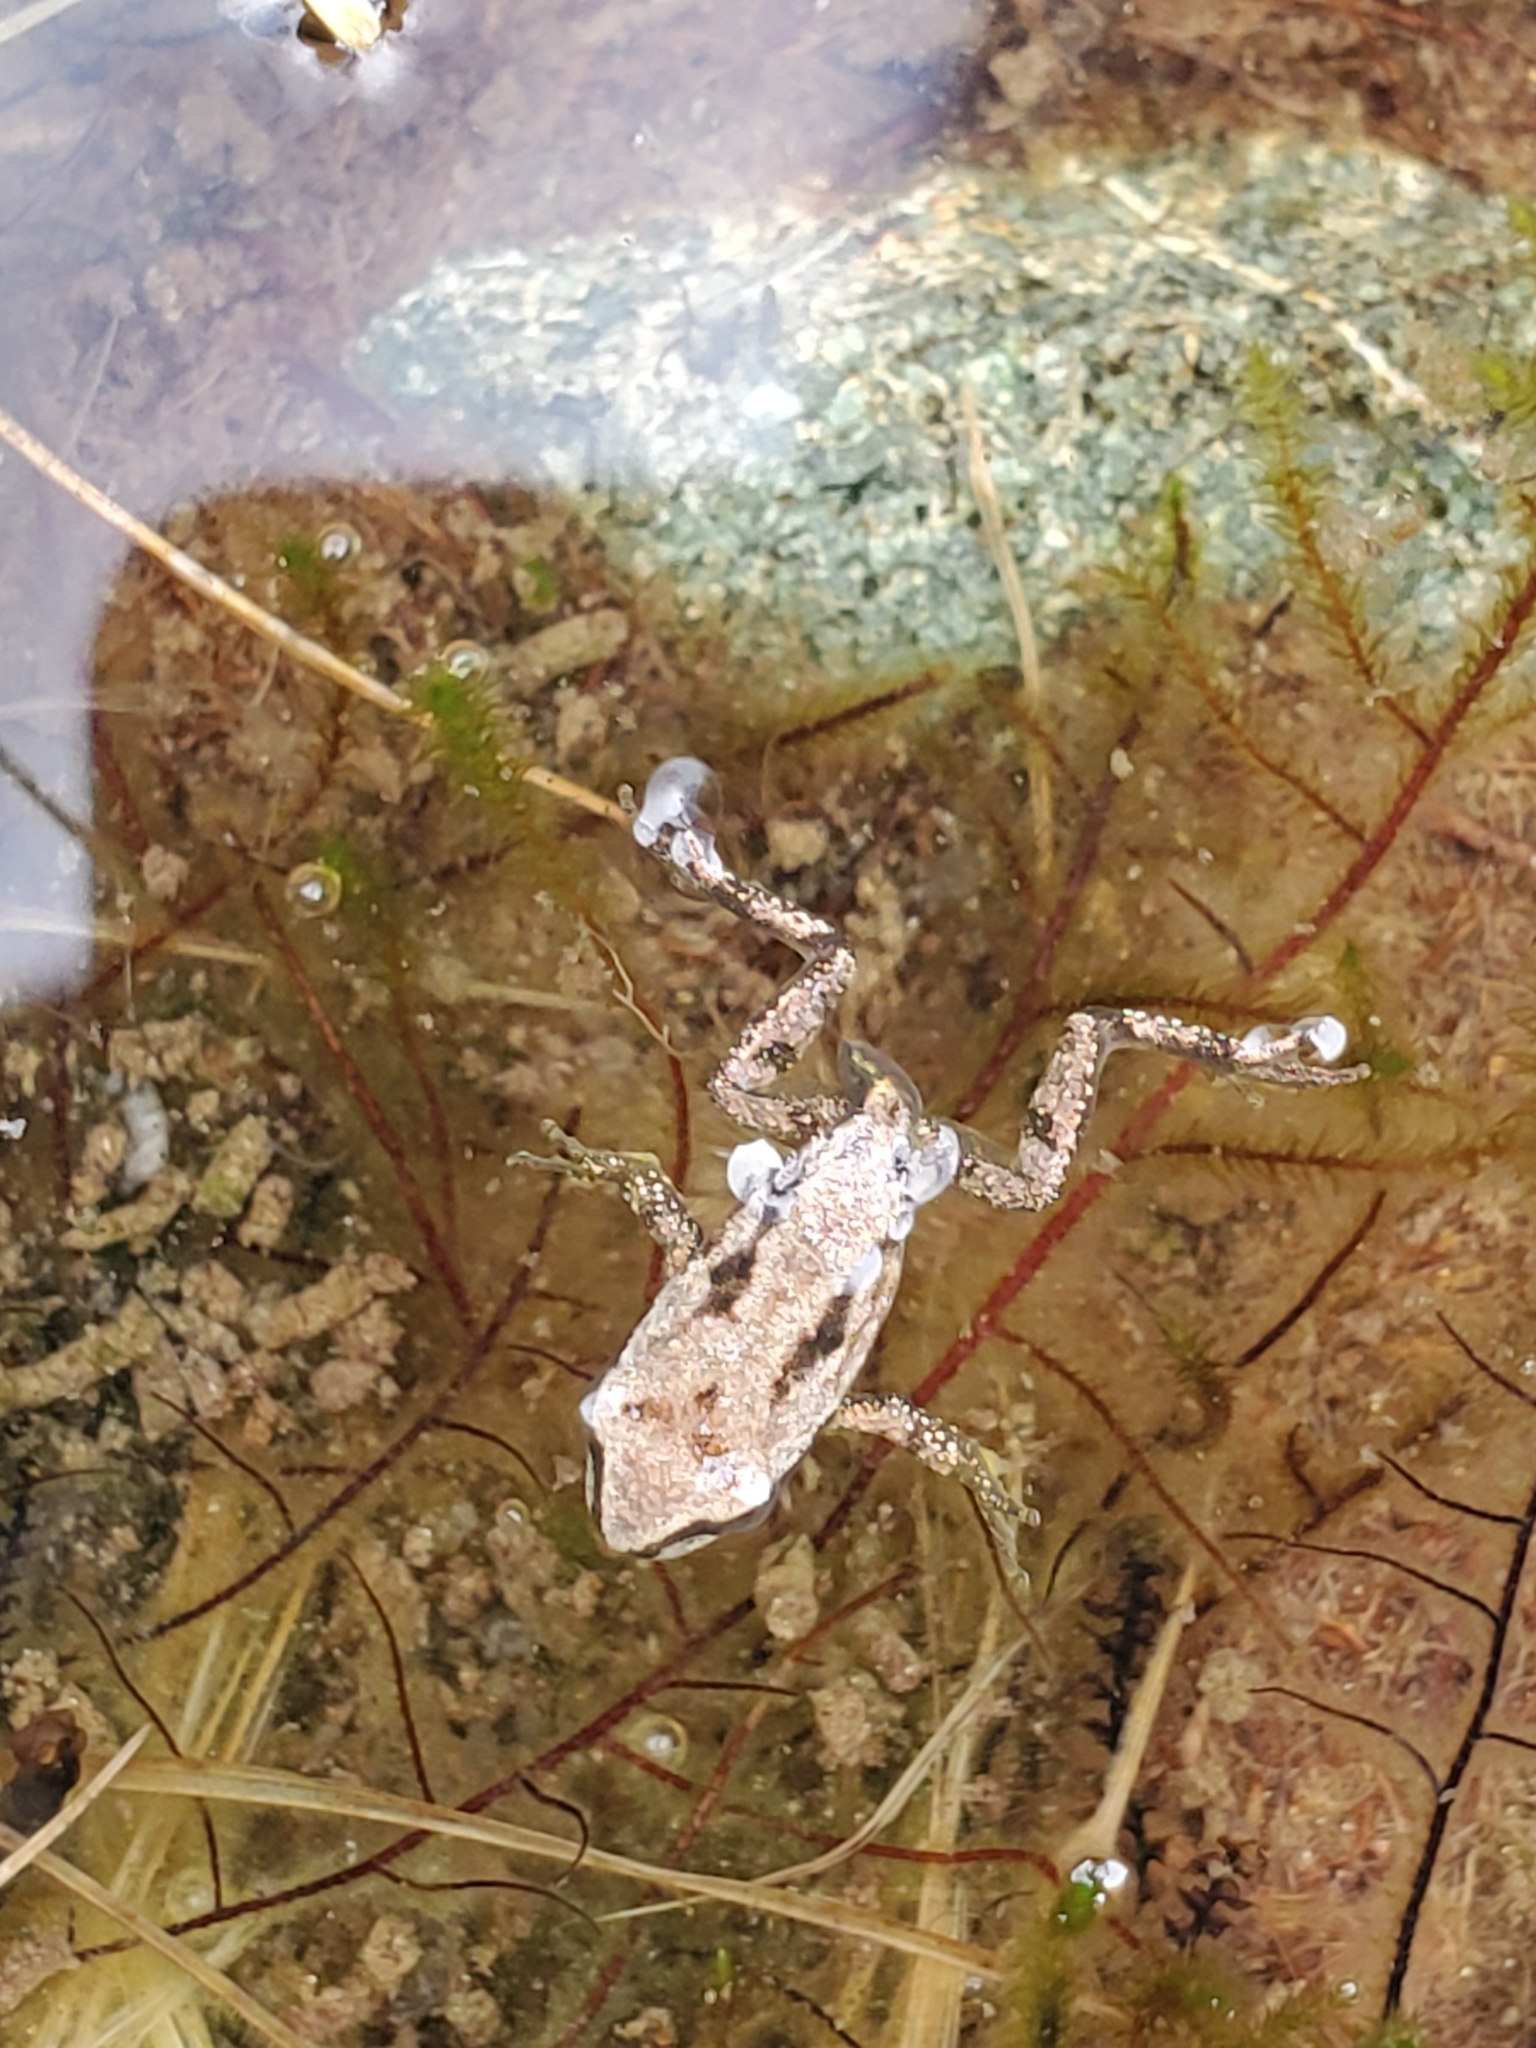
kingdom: Animalia
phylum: Chordata
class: Amphibia
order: Anura
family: Hylidae
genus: Pseudacris
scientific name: Pseudacris regilla
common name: Pacific chorus frog
